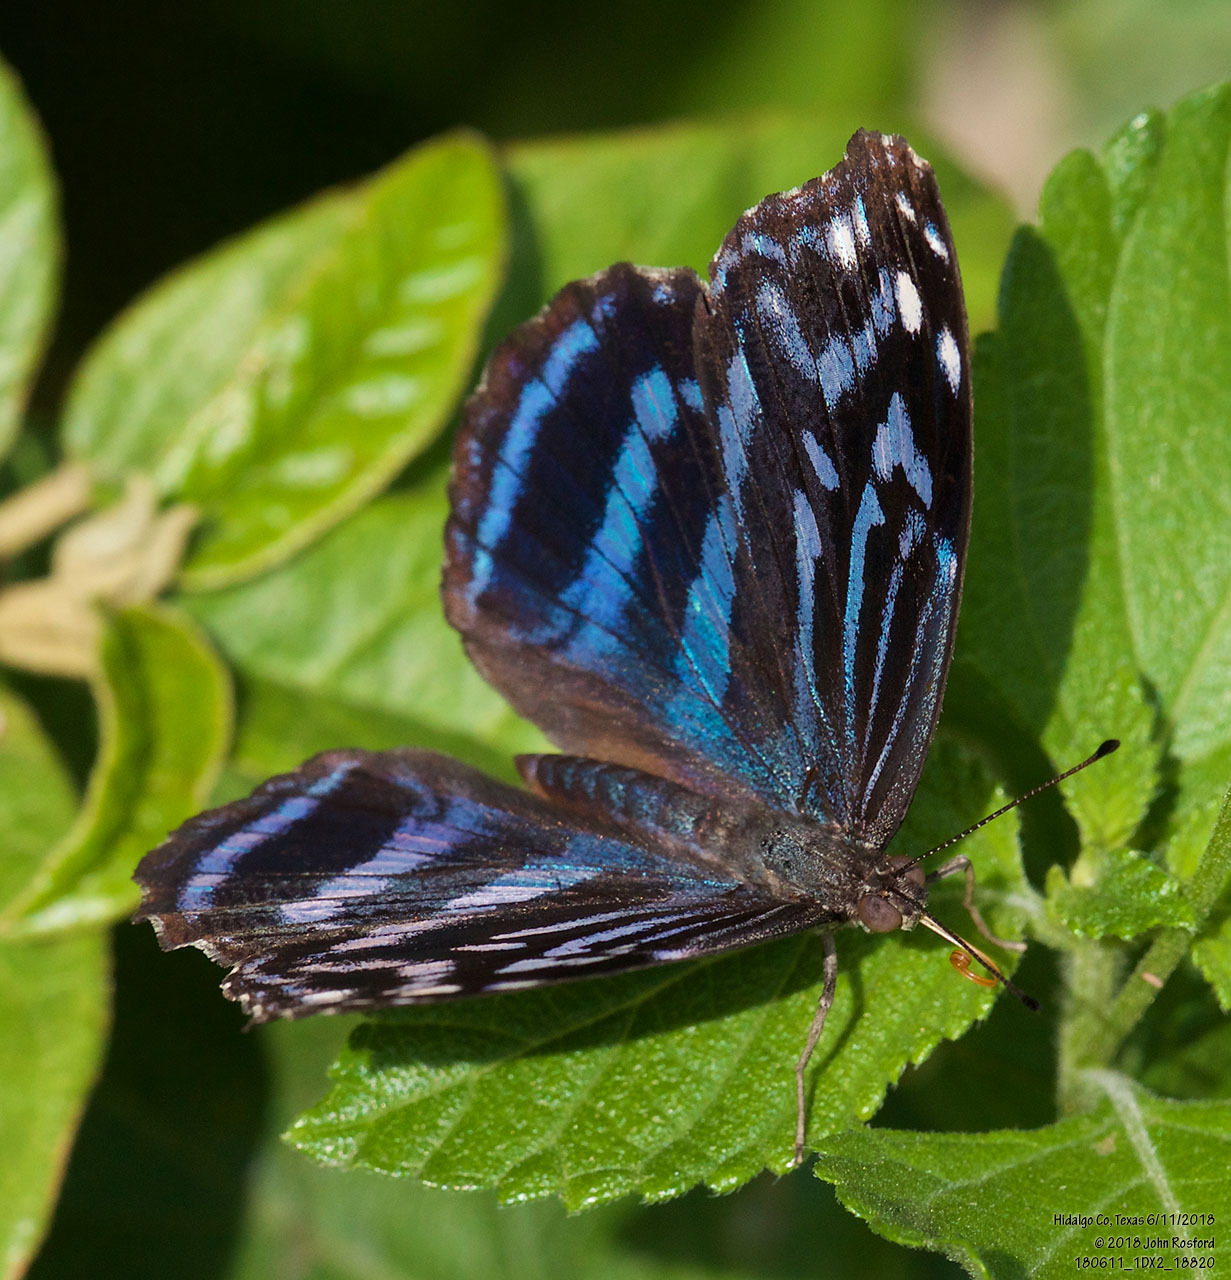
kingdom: Animalia
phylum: Arthropoda
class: Insecta
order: Lepidoptera
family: Nymphalidae
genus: Myscelia
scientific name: Myscelia ethusa
